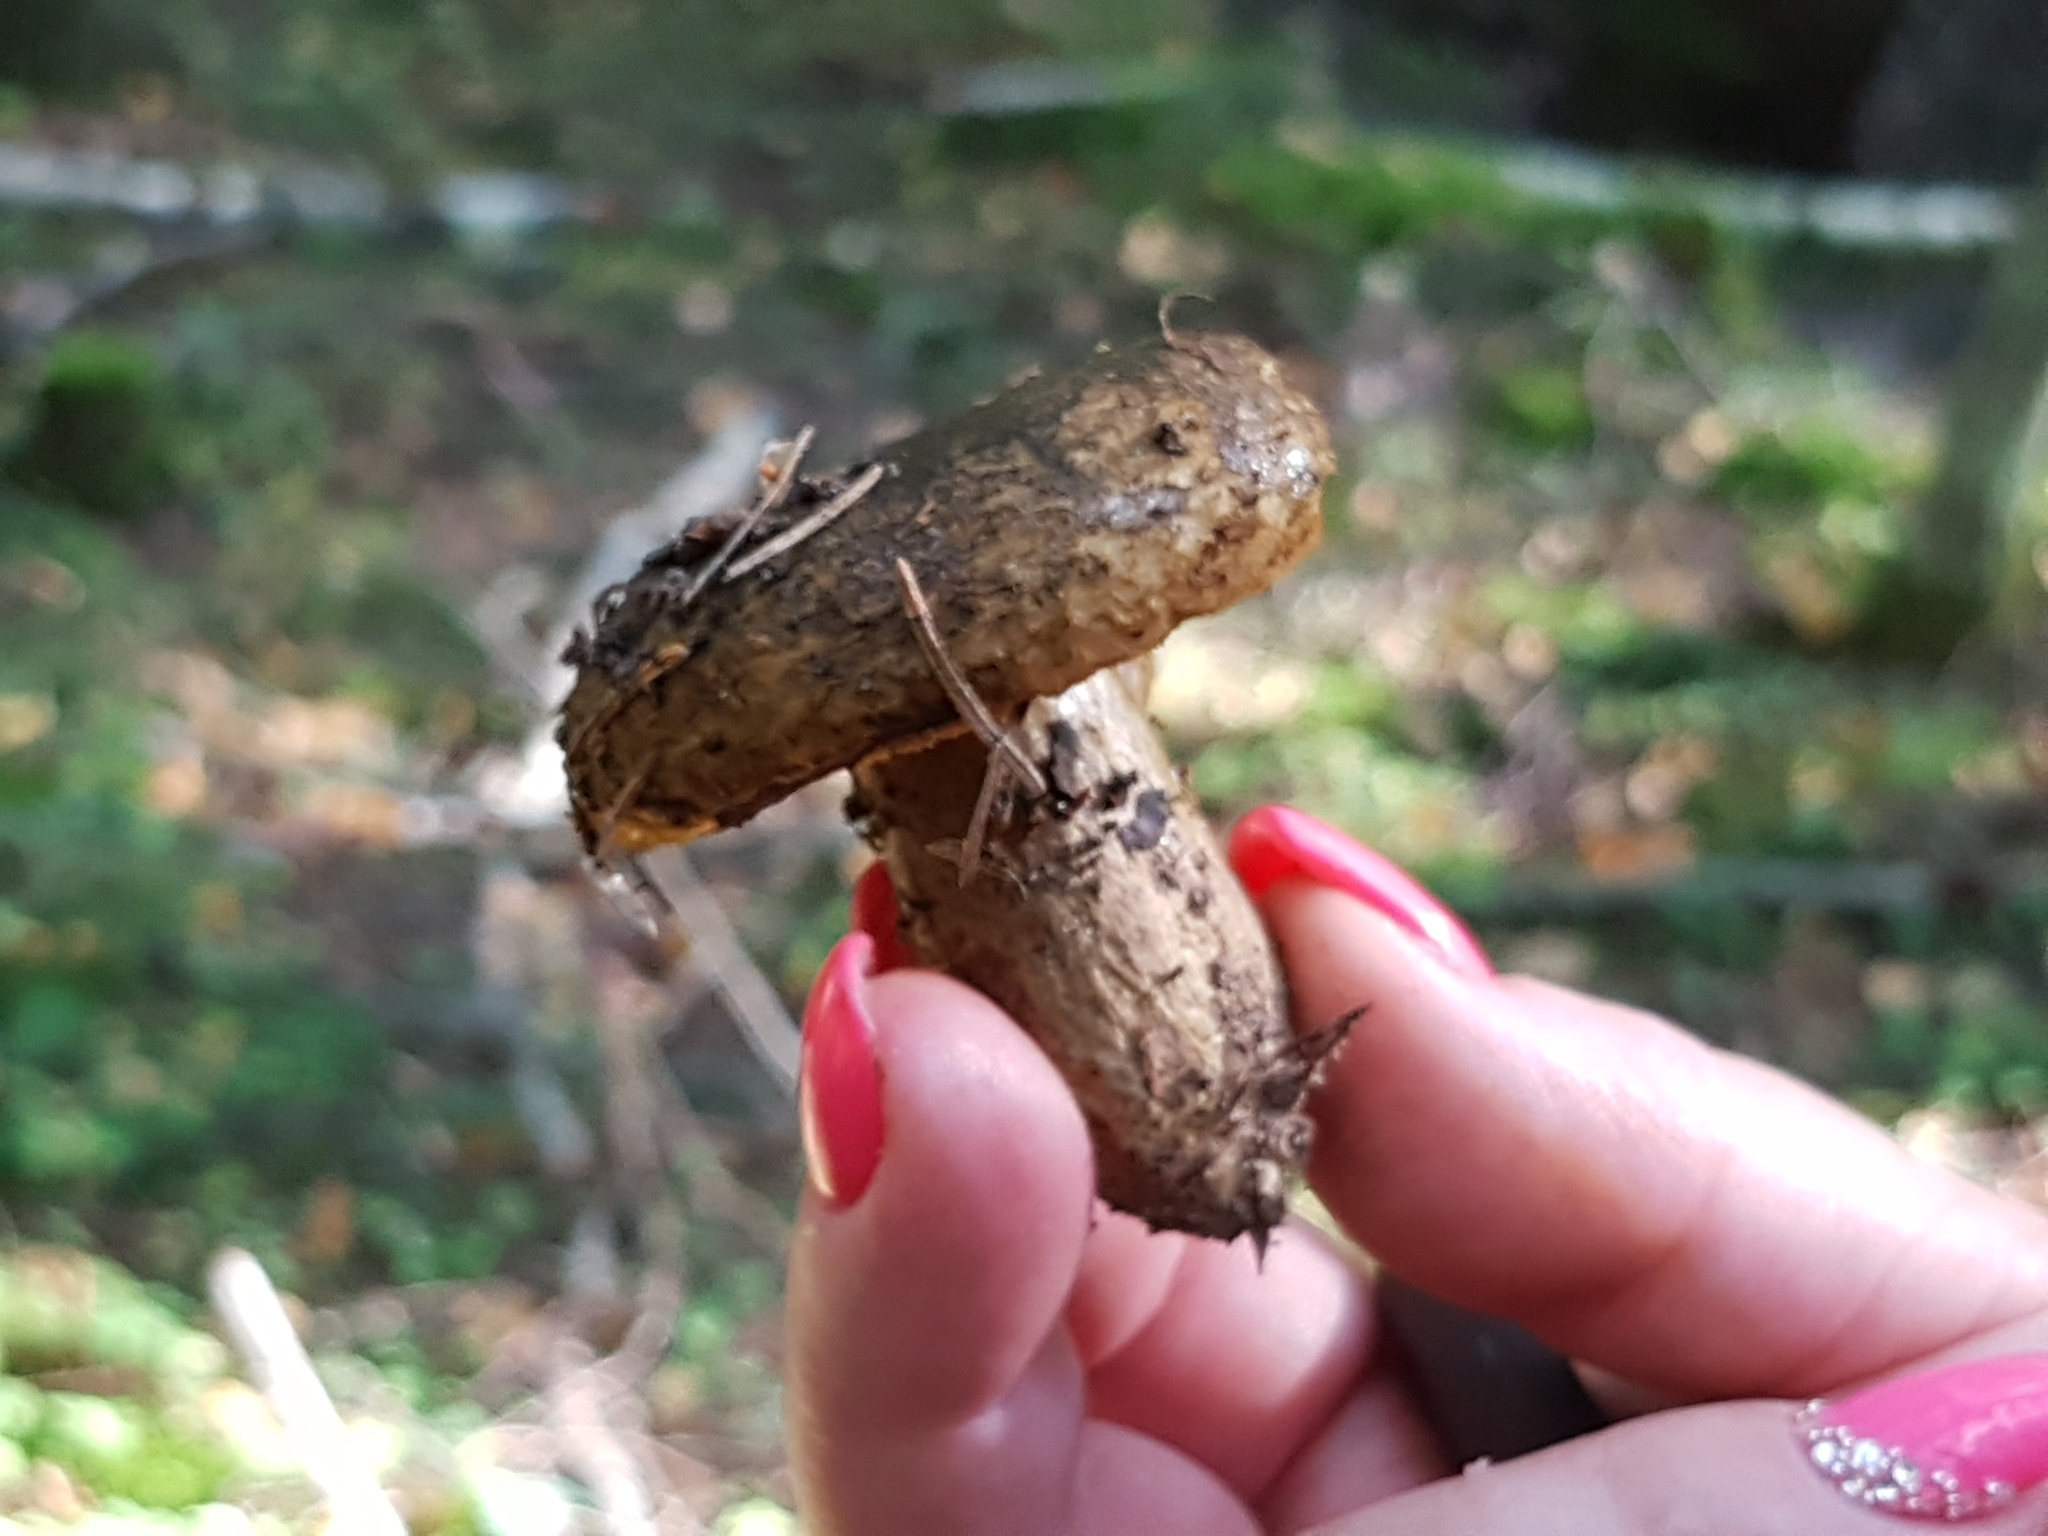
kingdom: Fungi
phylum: Basidiomycota
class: Agaricomycetes
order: Russulales
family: Russulaceae
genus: Lactarius
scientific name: Lactarius turpis
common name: Ugly milk-cap
